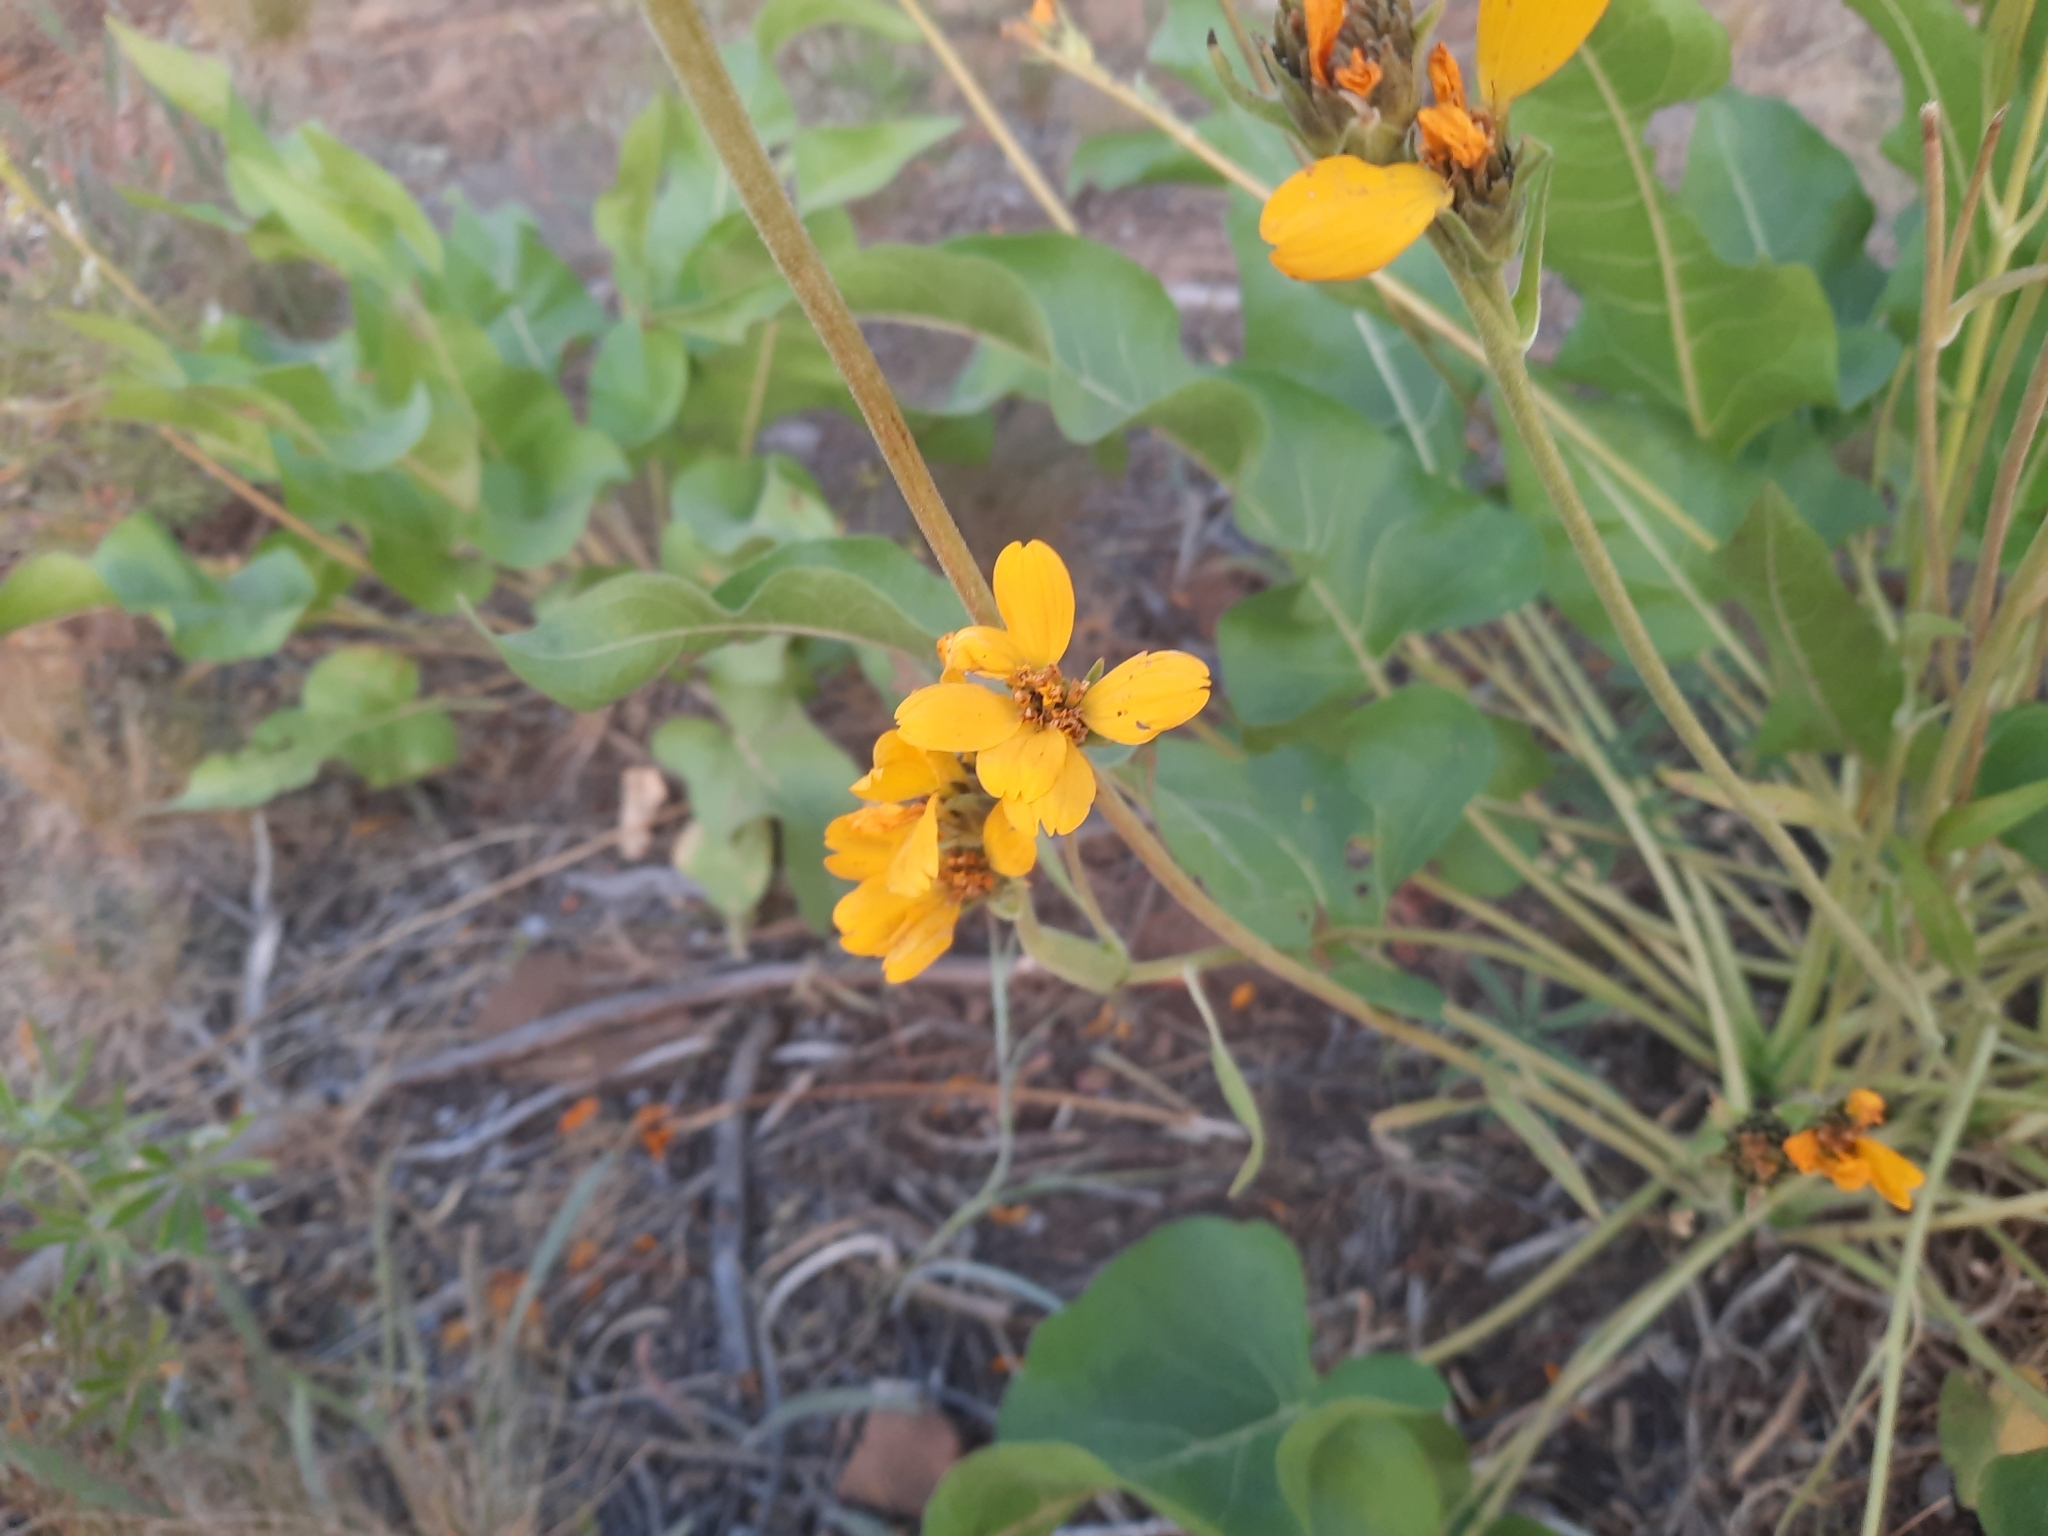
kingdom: Plantae
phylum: Tracheophyta
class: Magnoliopsida
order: Asterales
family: Asteraceae
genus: Balsamorhiza
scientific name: Balsamorhiza careyana
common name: Carey's balsamroot
